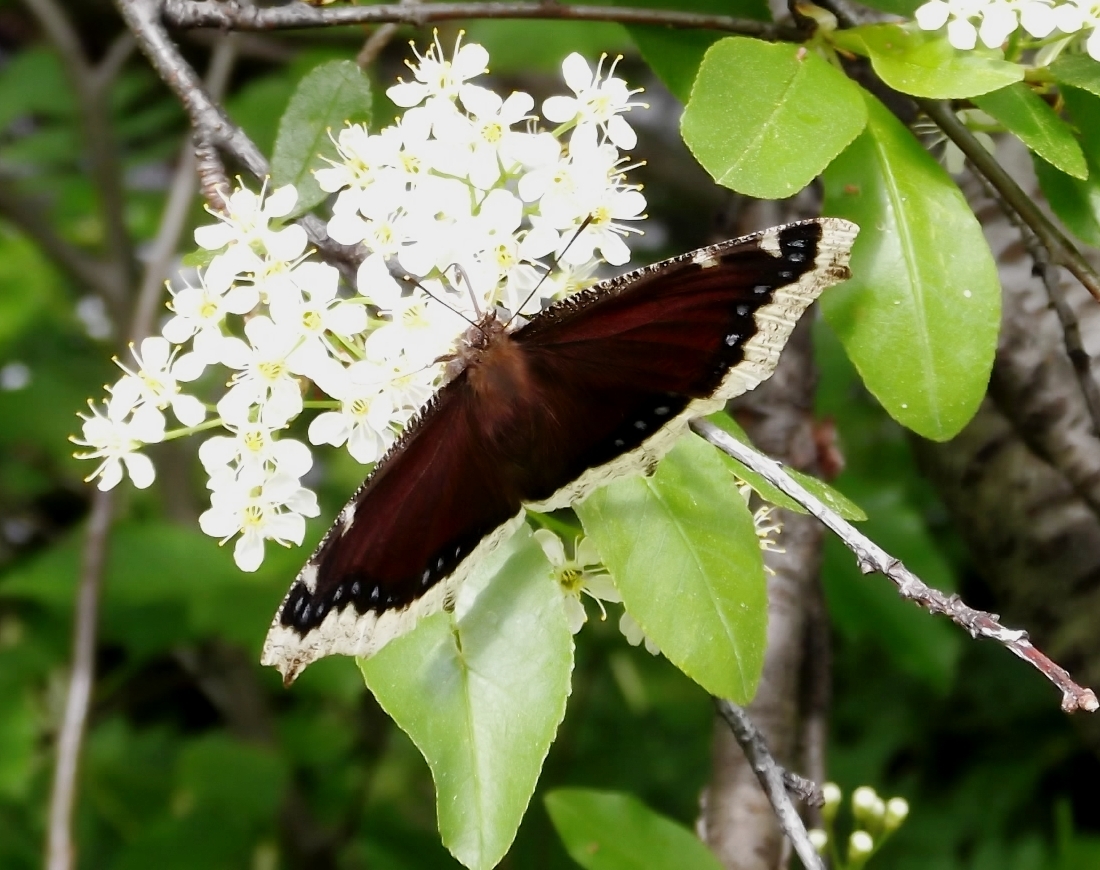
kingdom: Animalia
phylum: Arthropoda
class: Insecta
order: Lepidoptera
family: Nymphalidae
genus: Nymphalis
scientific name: Nymphalis antiopa
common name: Camberwell beauty
